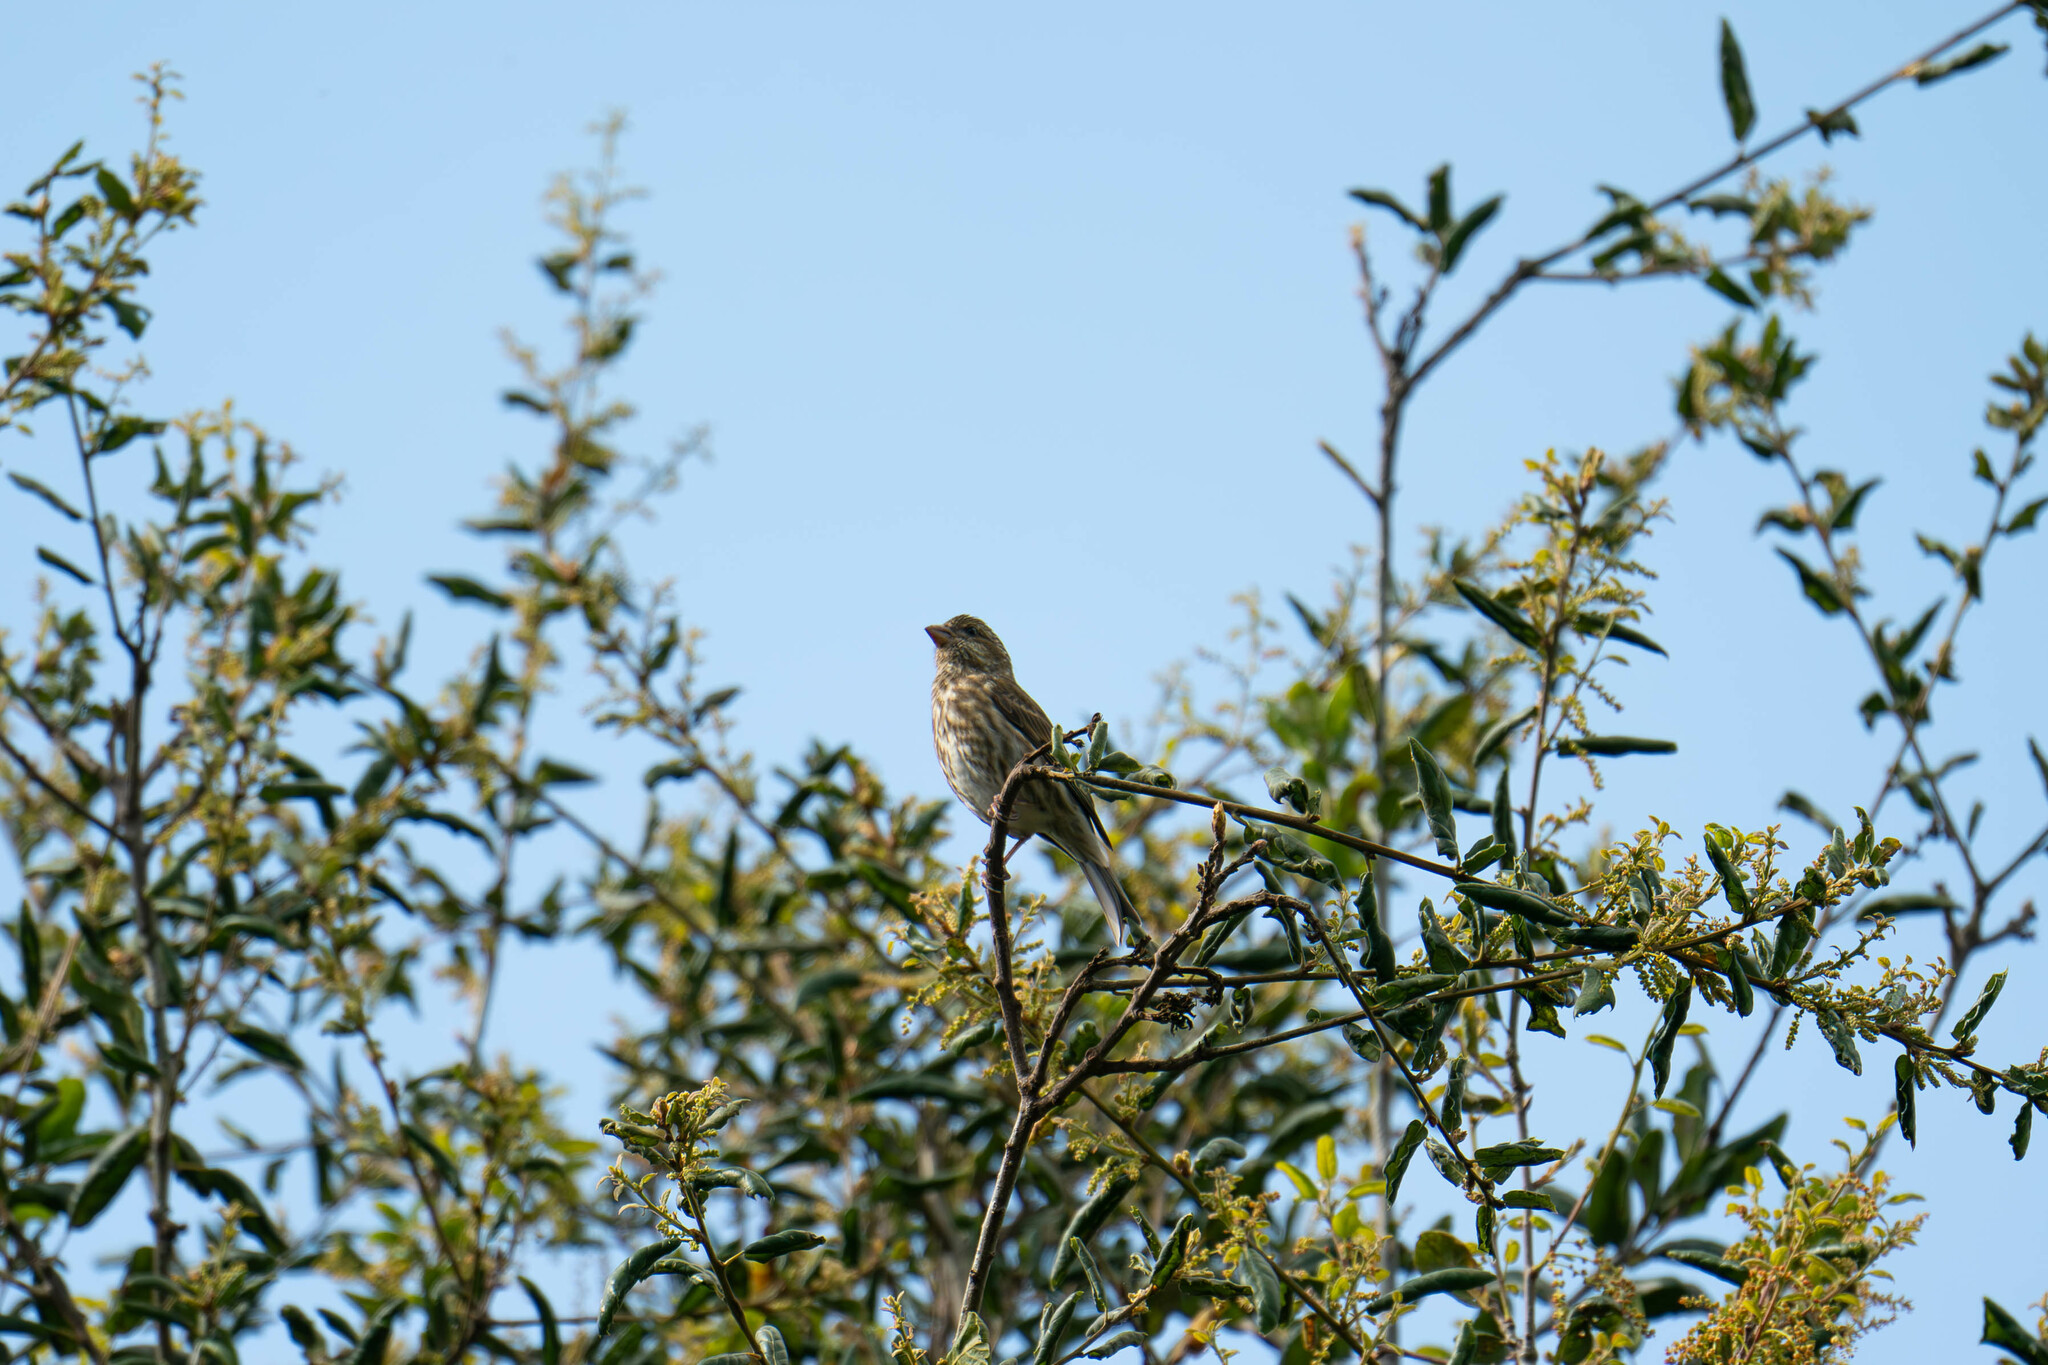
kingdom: Animalia
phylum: Chordata
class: Aves
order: Passeriformes
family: Fringillidae
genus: Haemorhous
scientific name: Haemorhous purpureus
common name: Purple finch
